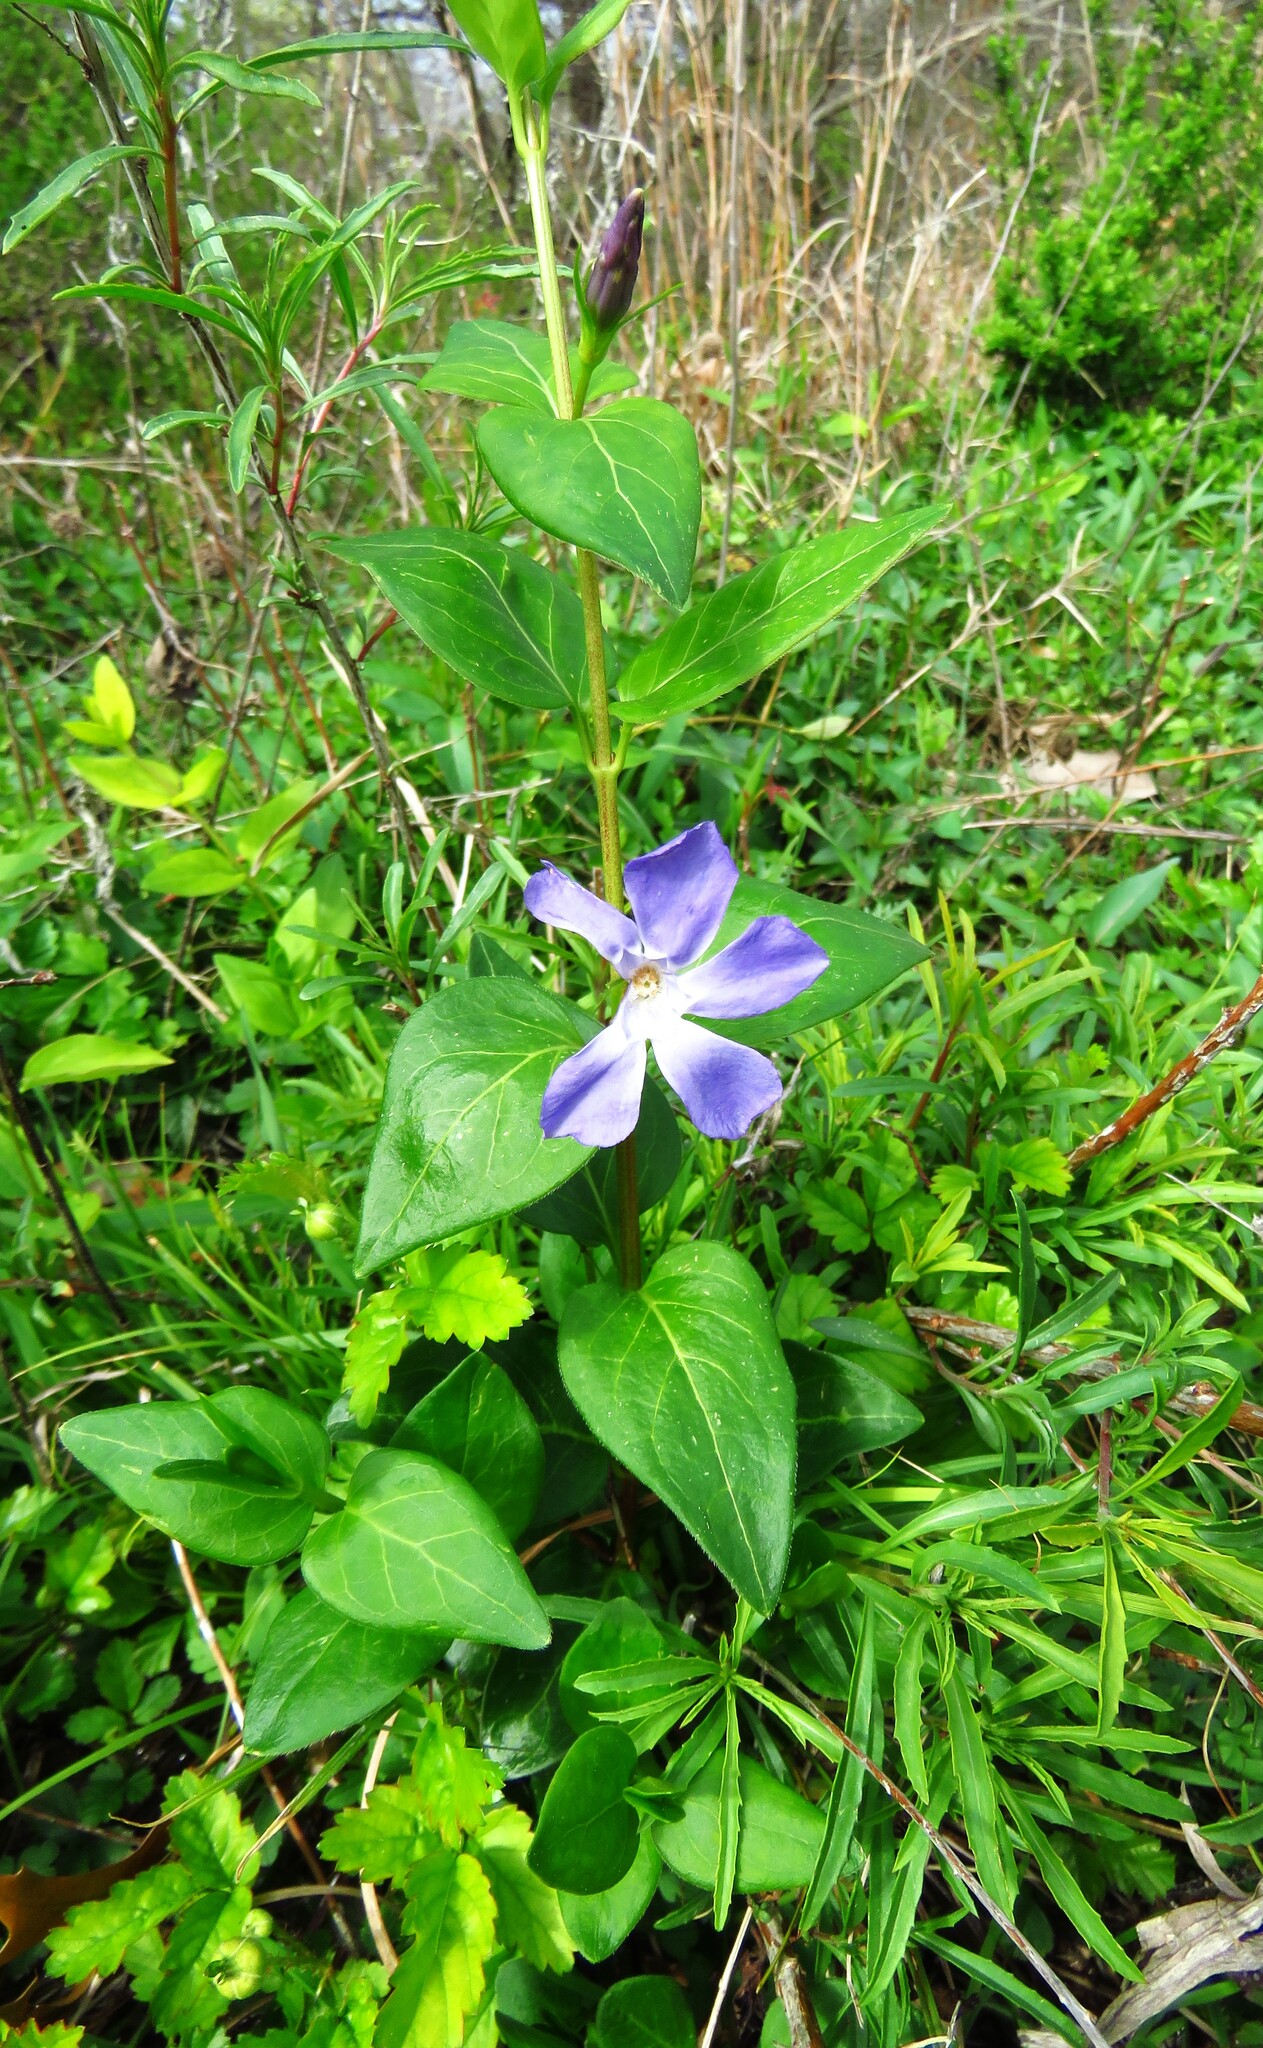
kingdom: Plantae
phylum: Tracheophyta
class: Magnoliopsida
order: Gentianales
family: Apocynaceae
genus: Vinca
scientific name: Vinca major
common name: Greater periwinkle
